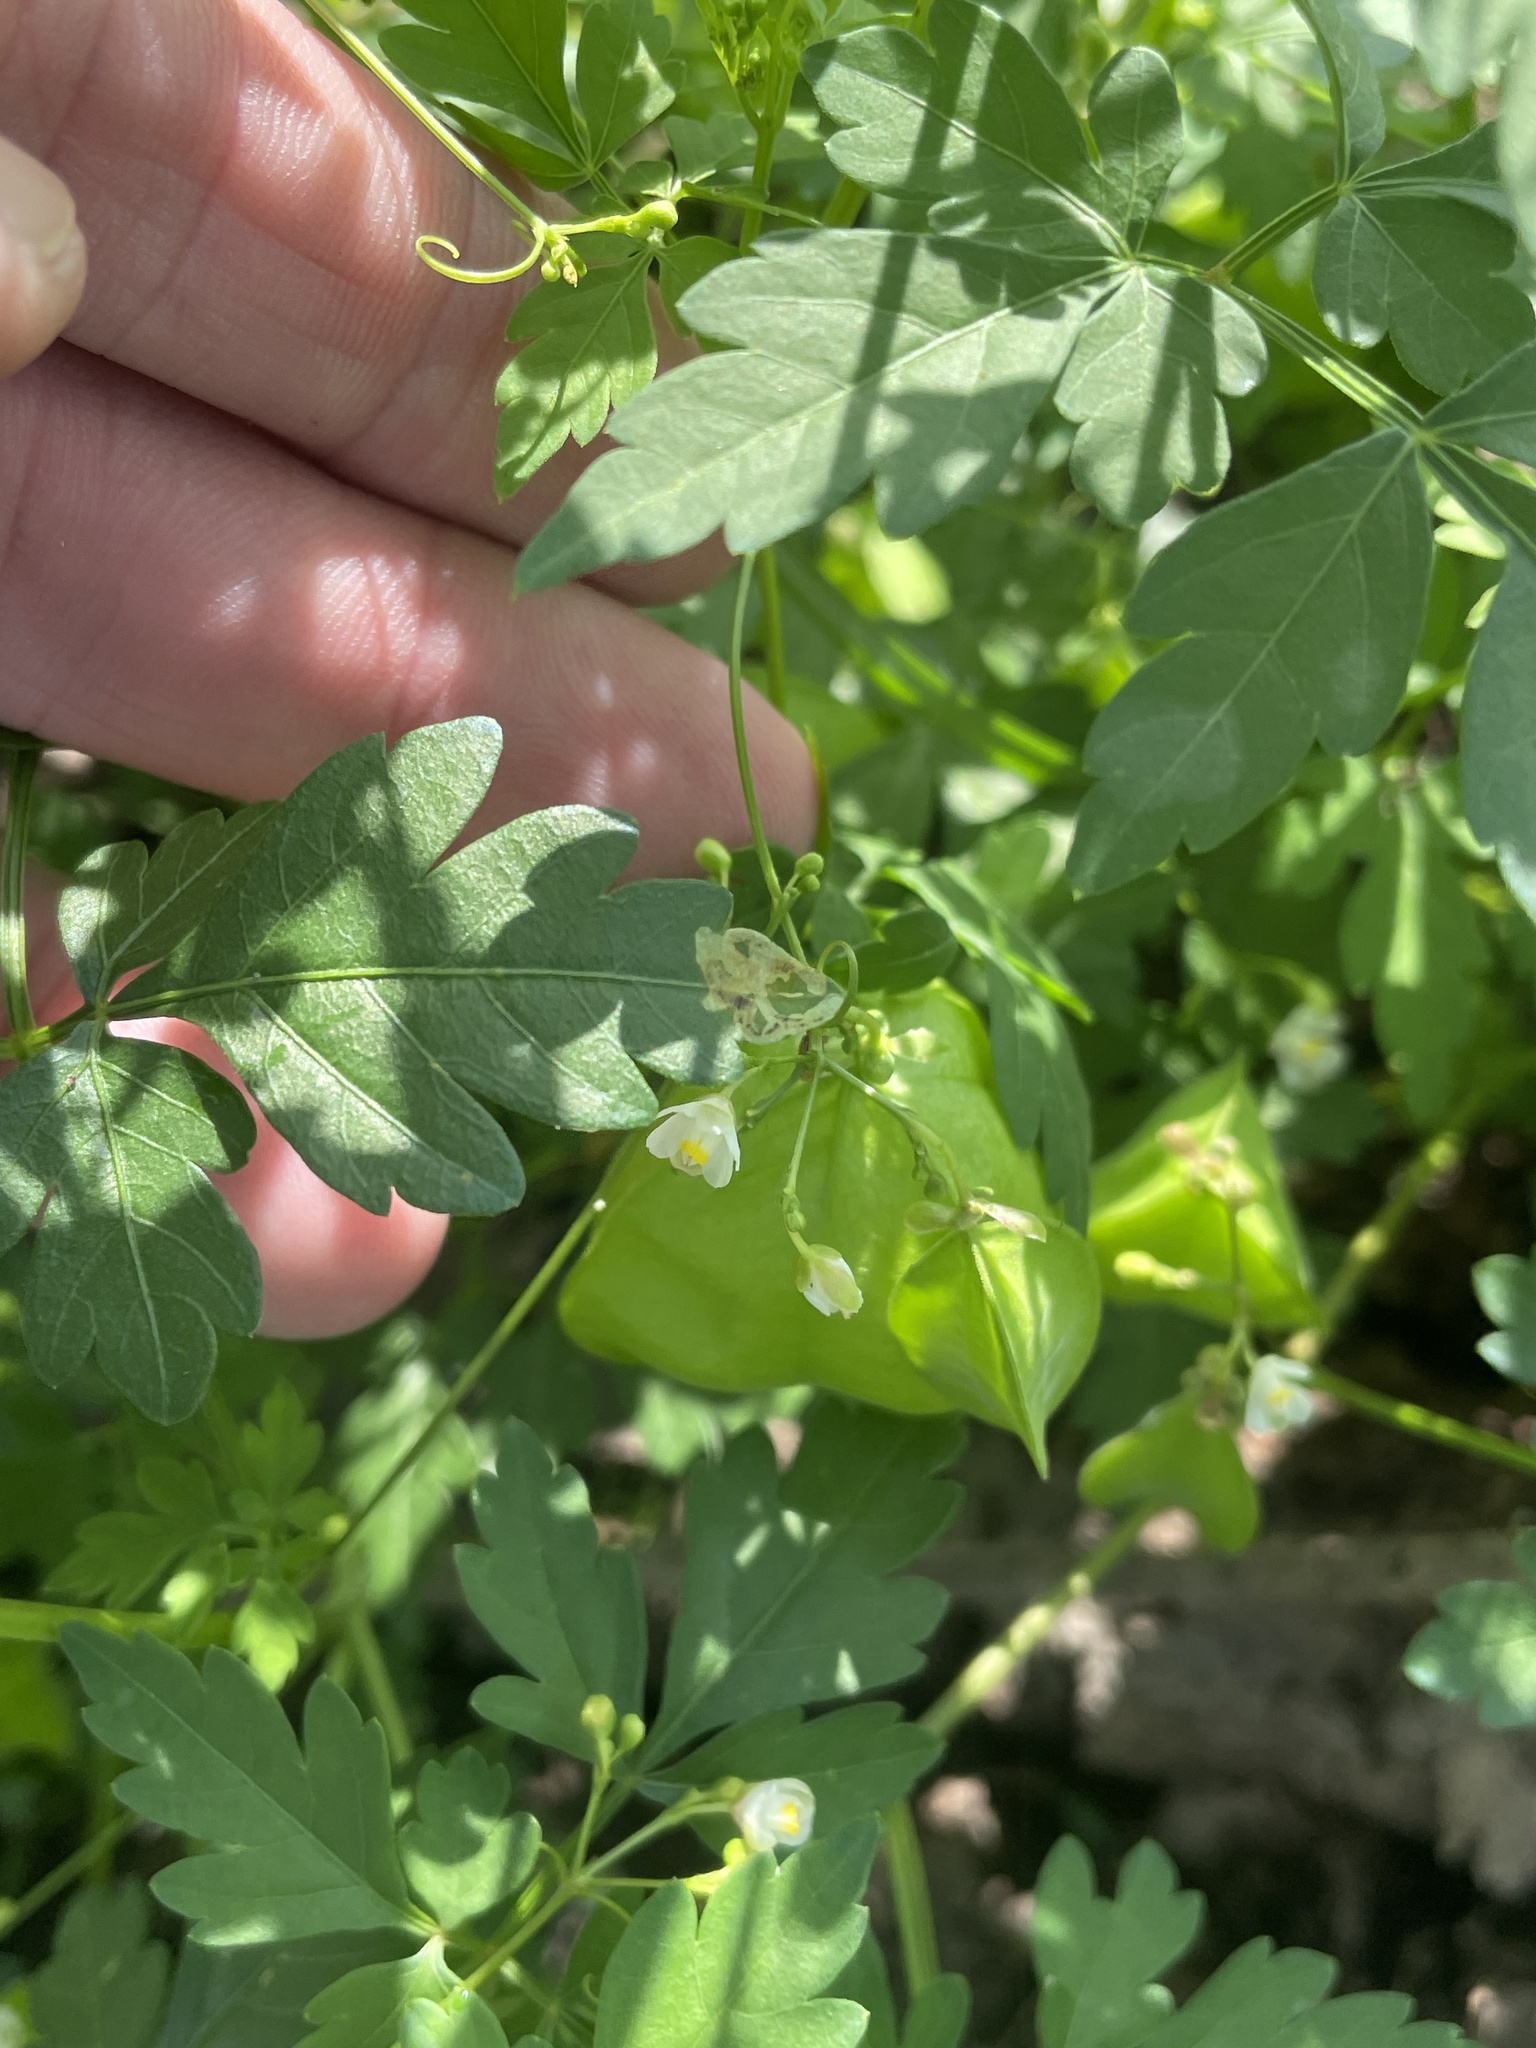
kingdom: Plantae
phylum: Tracheophyta
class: Magnoliopsida
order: Sapindales
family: Sapindaceae
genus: Cardiospermum
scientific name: Cardiospermum halicacabum
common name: Balloon vine
